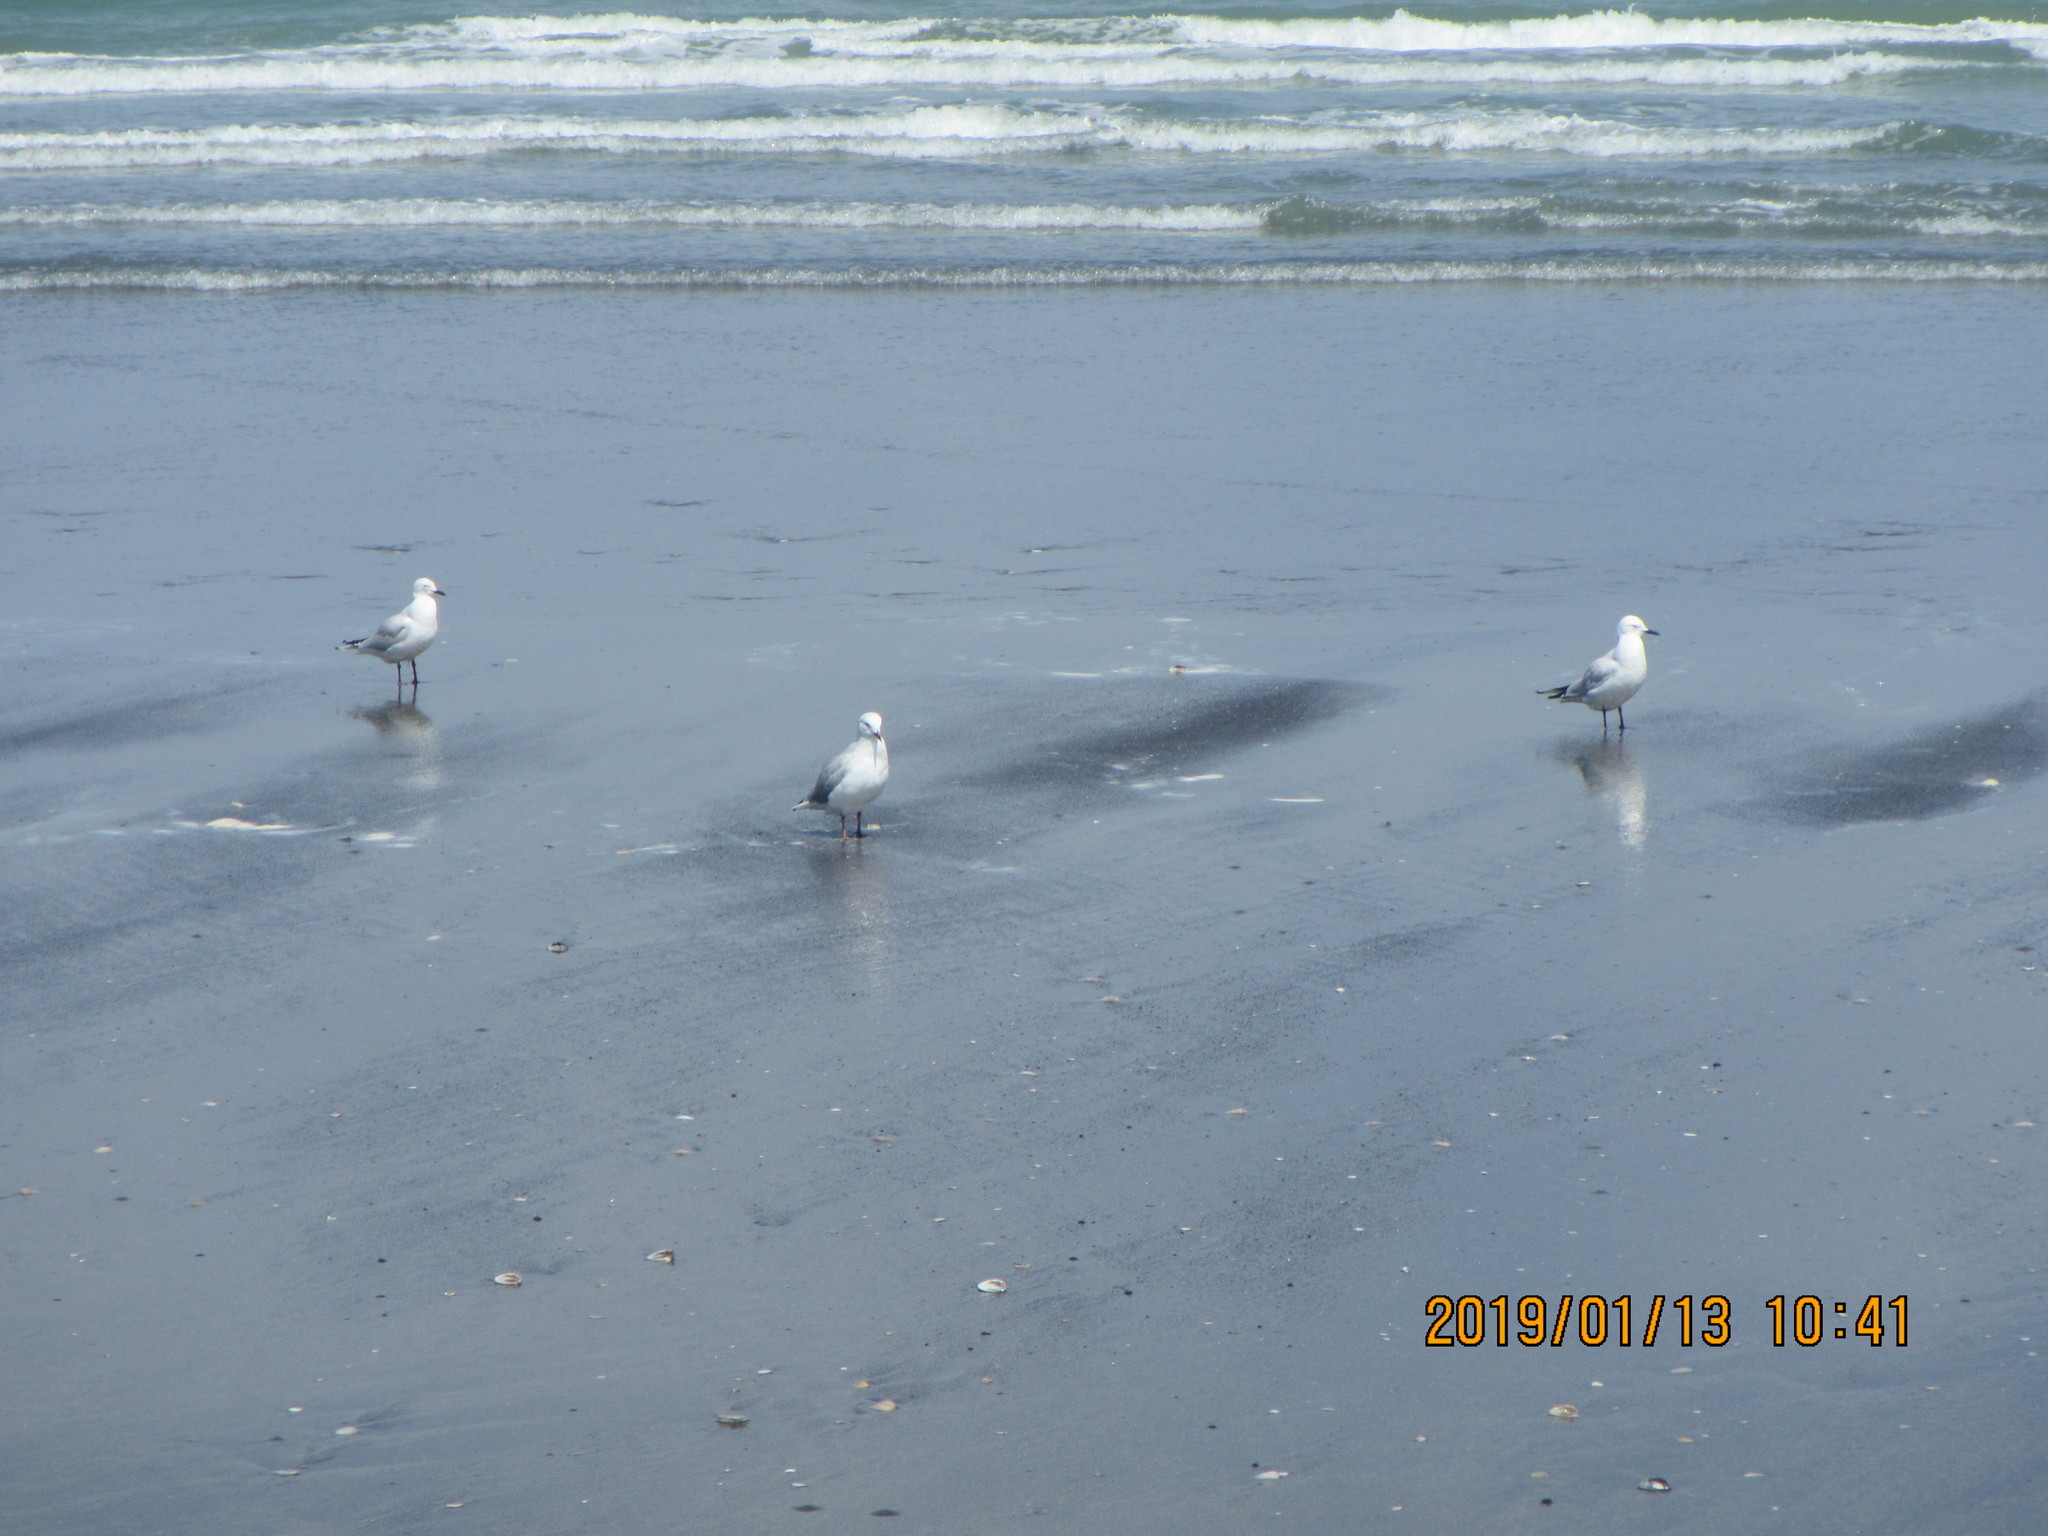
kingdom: Animalia
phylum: Chordata
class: Aves
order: Charadriiformes
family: Laridae
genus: Chroicocephalus
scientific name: Chroicocephalus bulleri
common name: Black-billed gull
